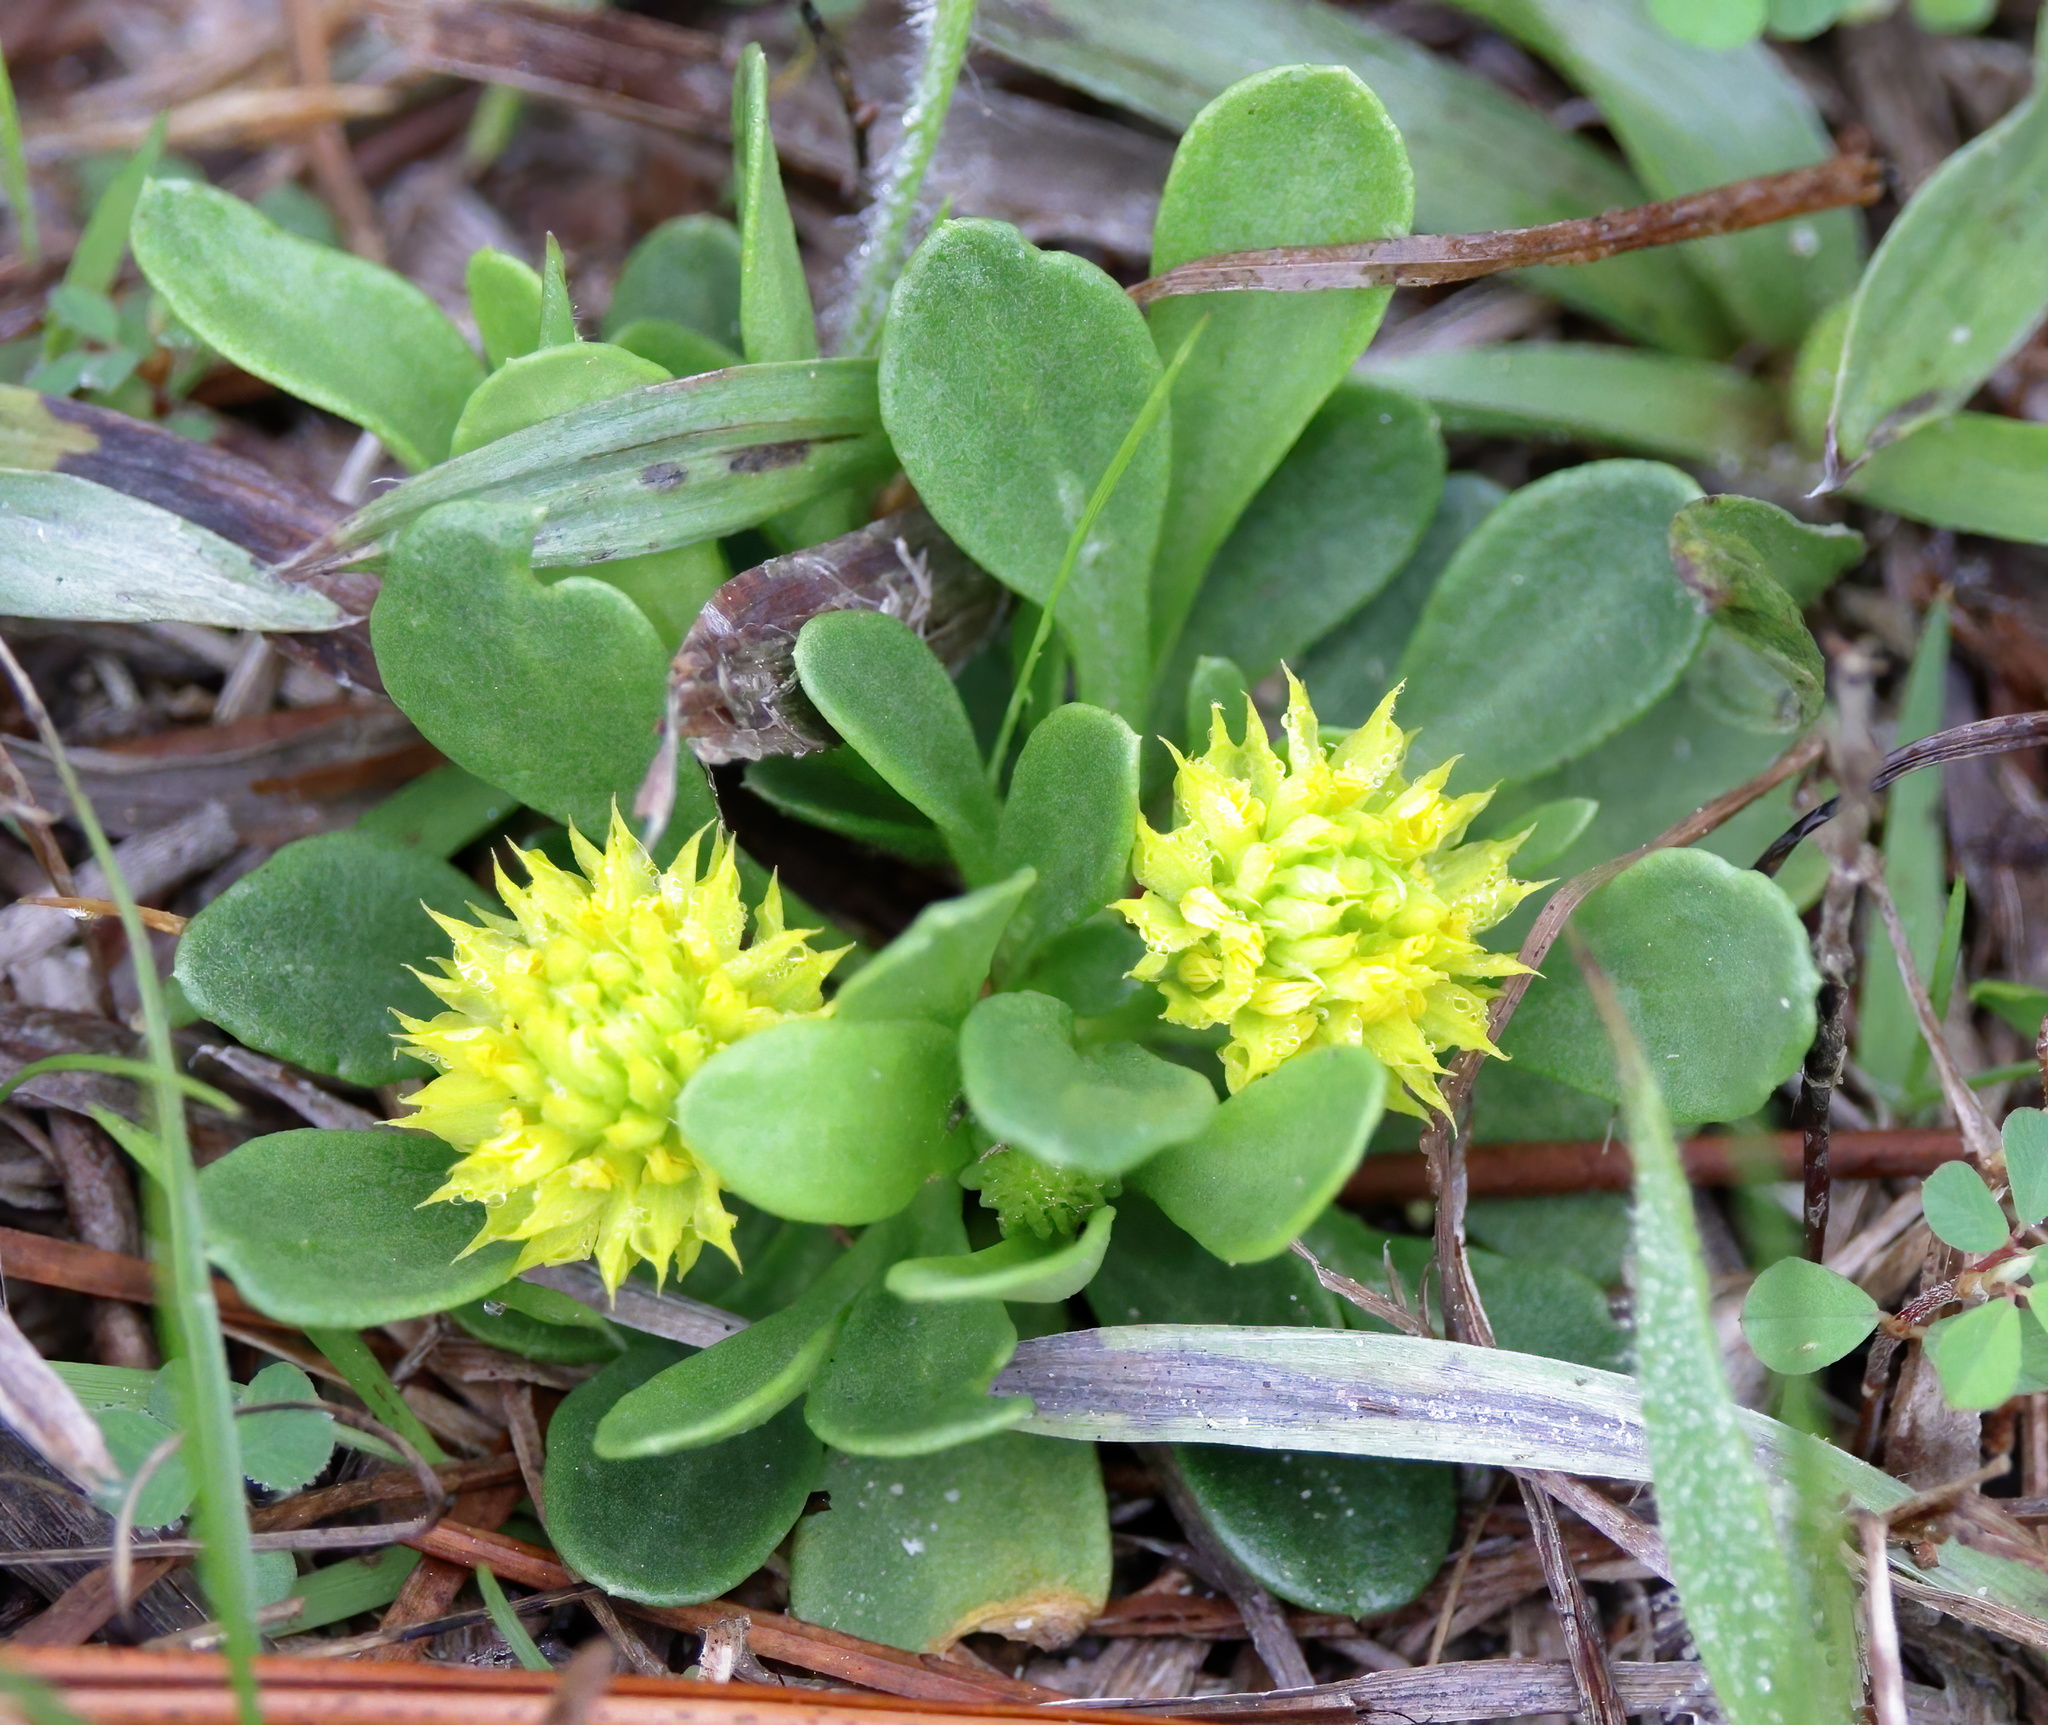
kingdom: Plantae
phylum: Tracheophyta
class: Magnoliopsida
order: Fabales
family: Polygalaceae
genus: Polygala
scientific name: Polygala nana
